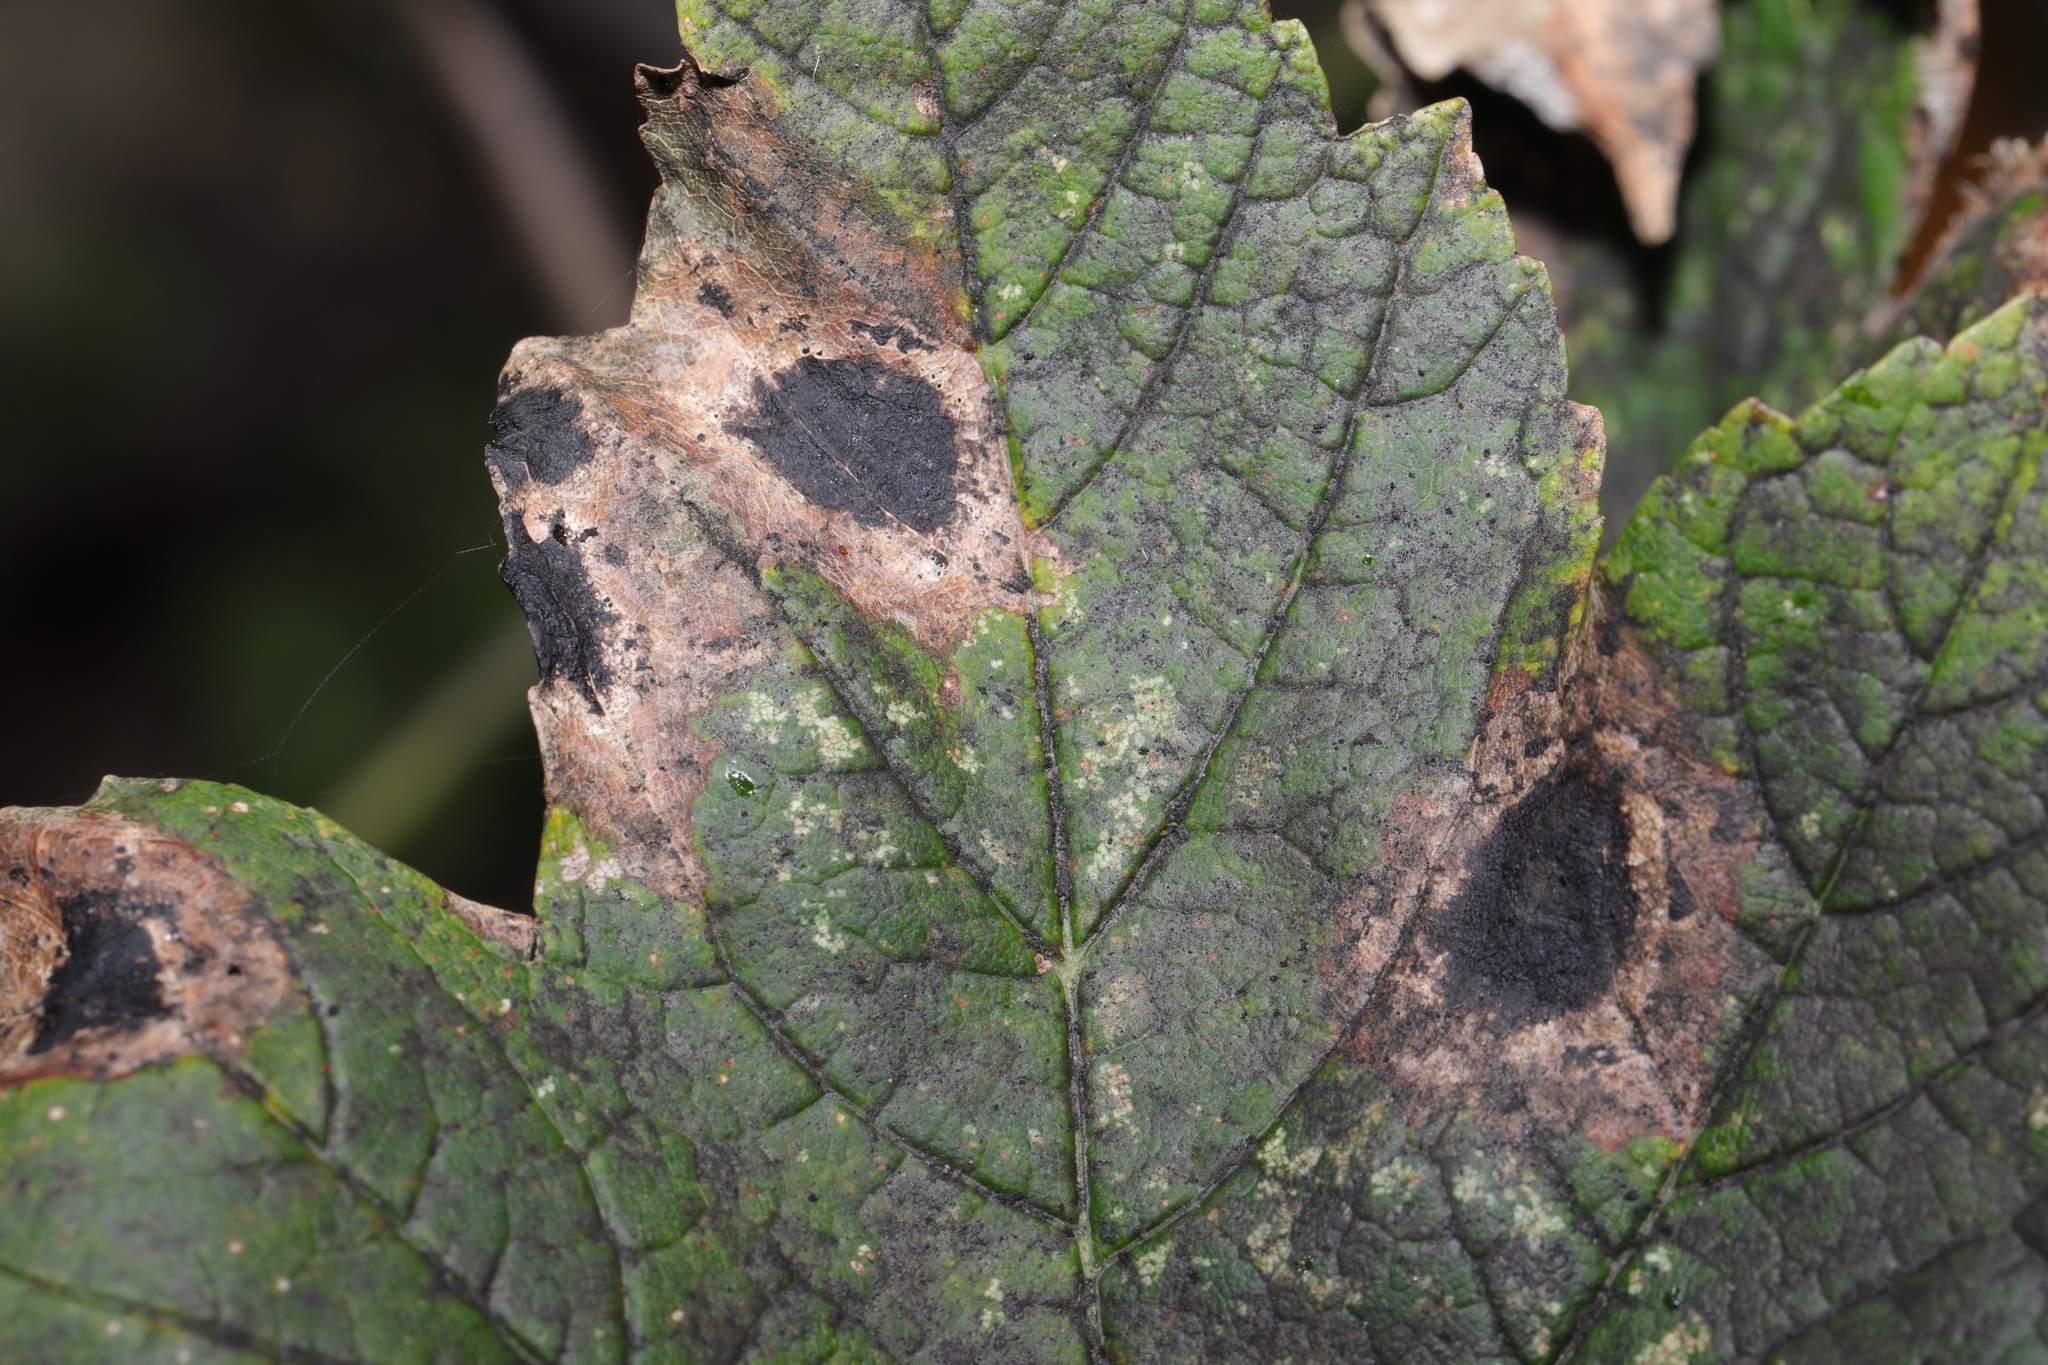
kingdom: Fungi
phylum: Ascomycota
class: Leotiomycetes
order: Rhytismatales
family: Rhytismataceae
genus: Rhytisma
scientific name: Rhytisma acerinum
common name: European tar spot
